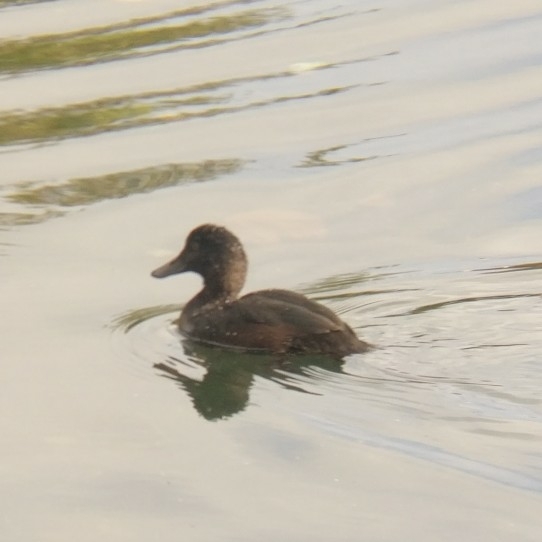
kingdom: Animalia
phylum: Chordata
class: Aves
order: Anseriformes
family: Anatidae
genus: Aythya
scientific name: Aythya novaeseelandiae
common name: New zealand scaup
